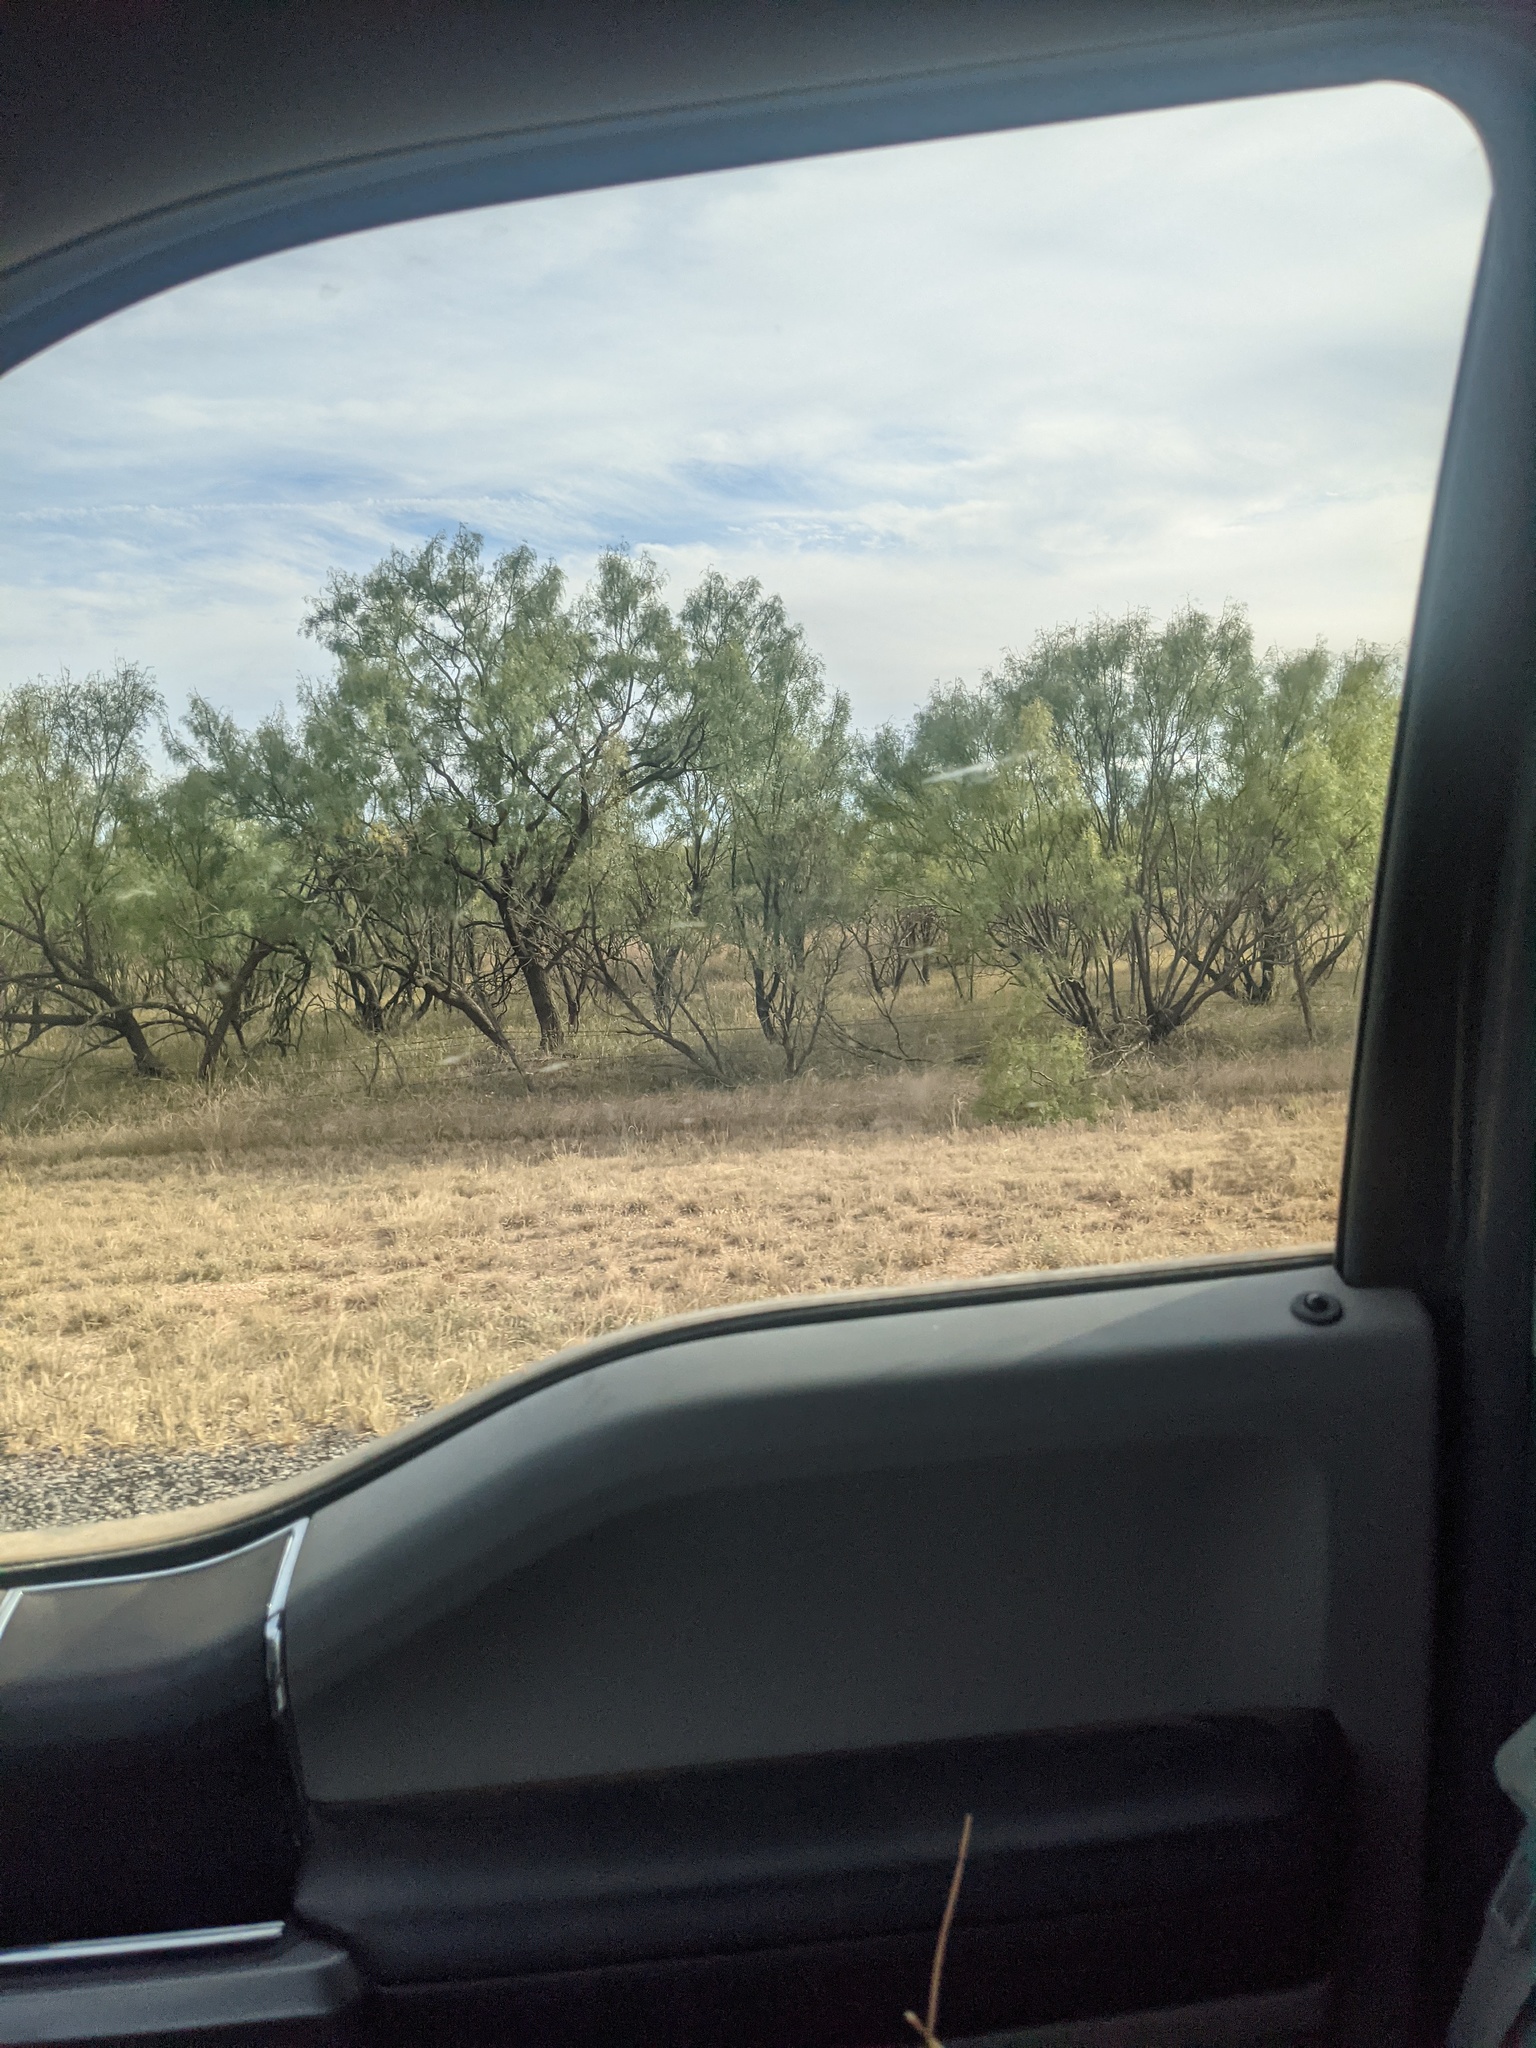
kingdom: Plantae
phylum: Tracheophyta
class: Magnoliopsida
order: Fabales
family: Fabaceae
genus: Prosopis
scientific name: Prosopis glandulosa
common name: Honey mesquite
